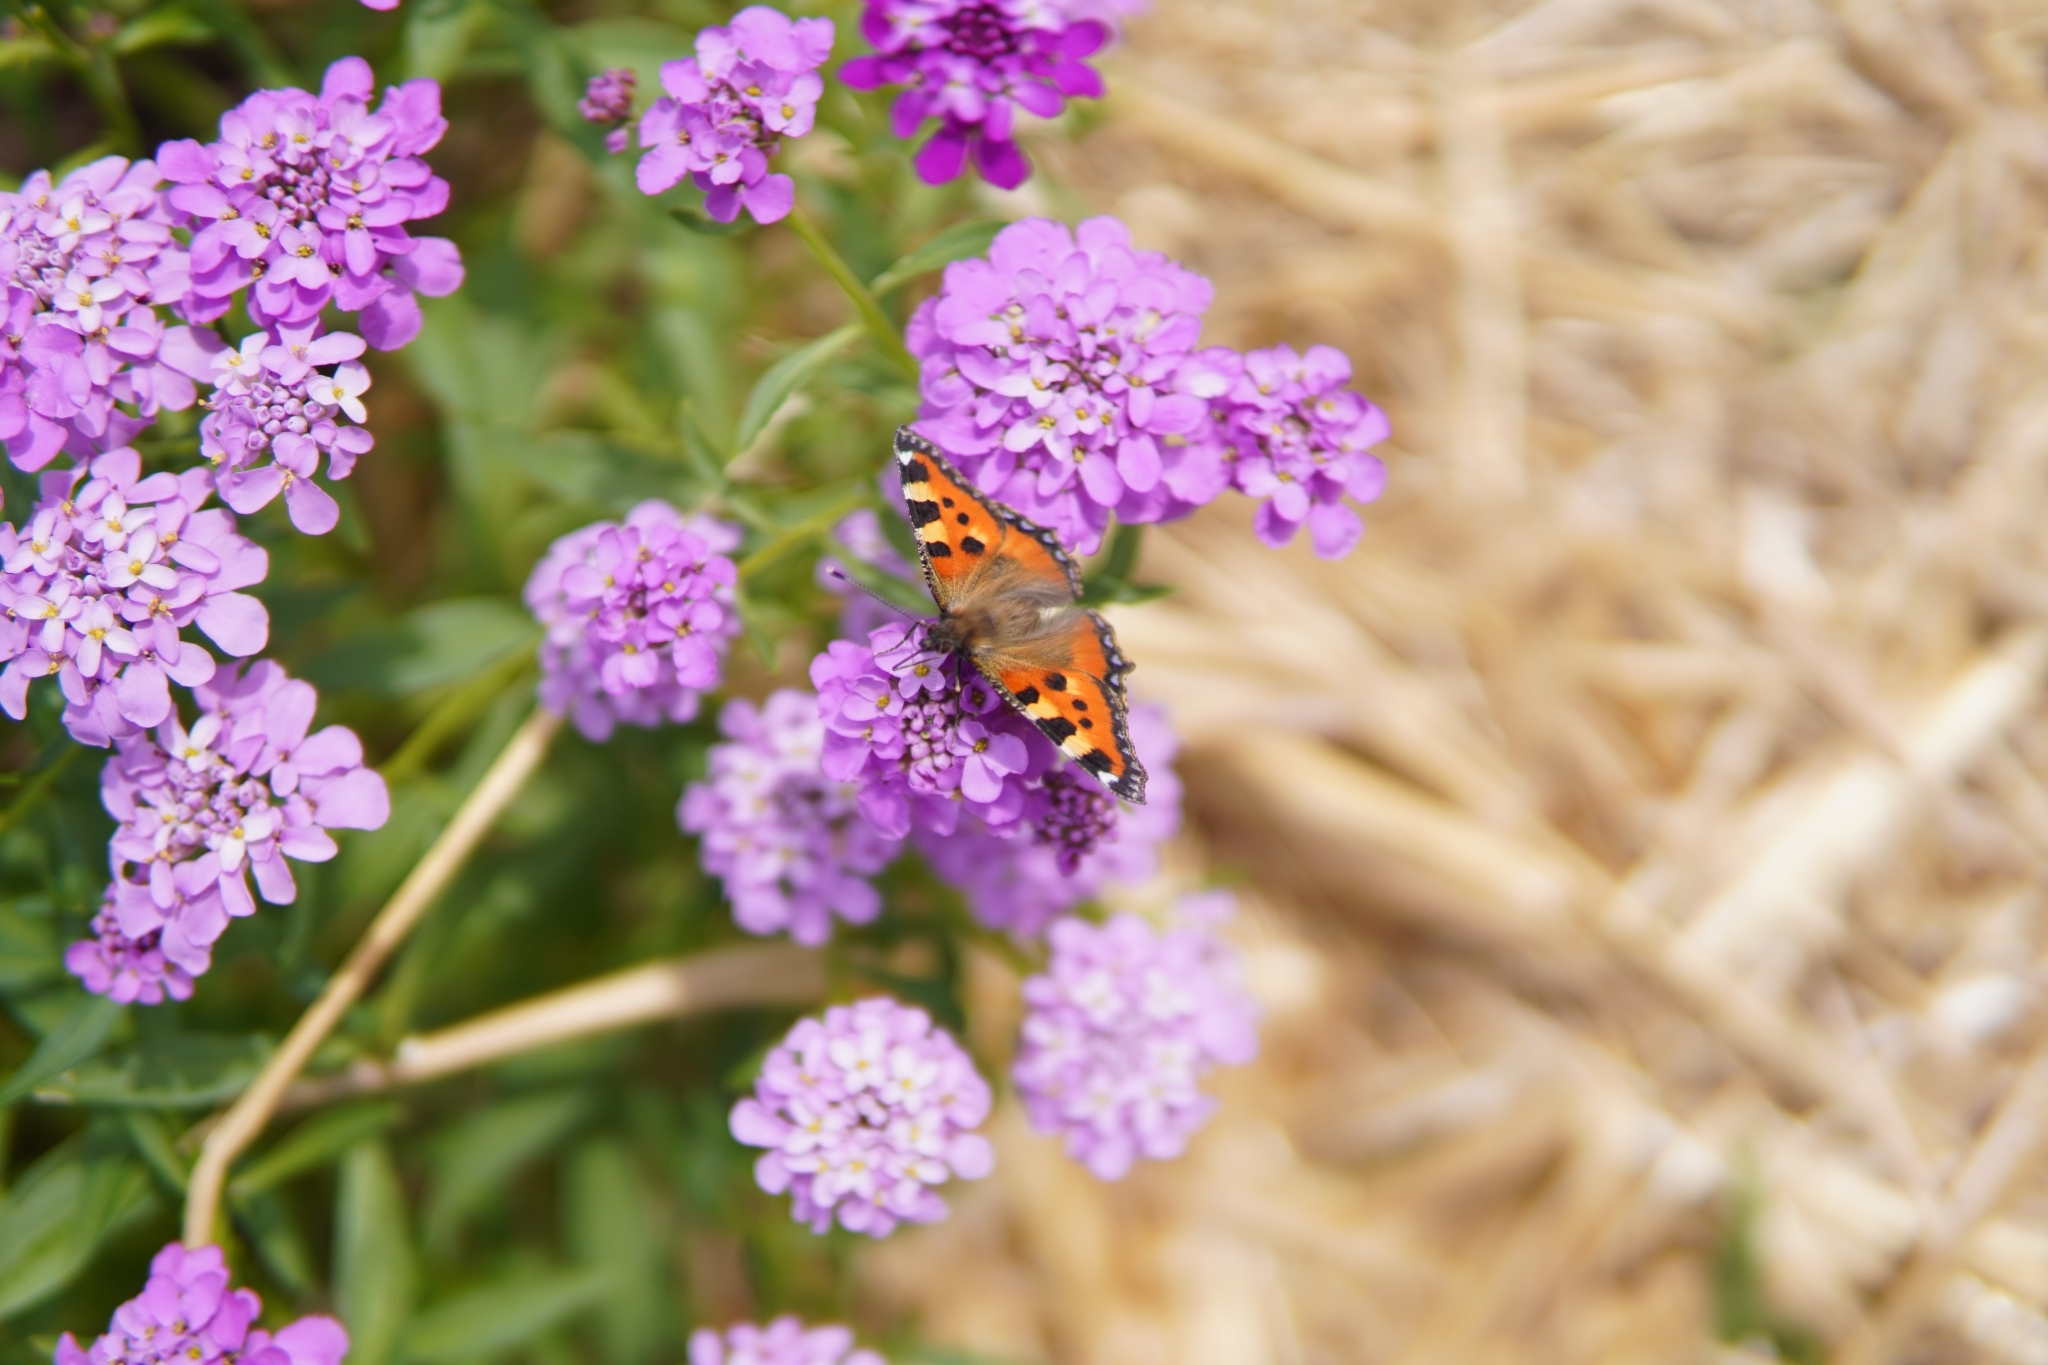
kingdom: Animalia
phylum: Arthropoda
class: Insecta
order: Lepidoptera
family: Nymphalidae
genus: Aglais
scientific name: Aglais urticae
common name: Small tortoiseshell
